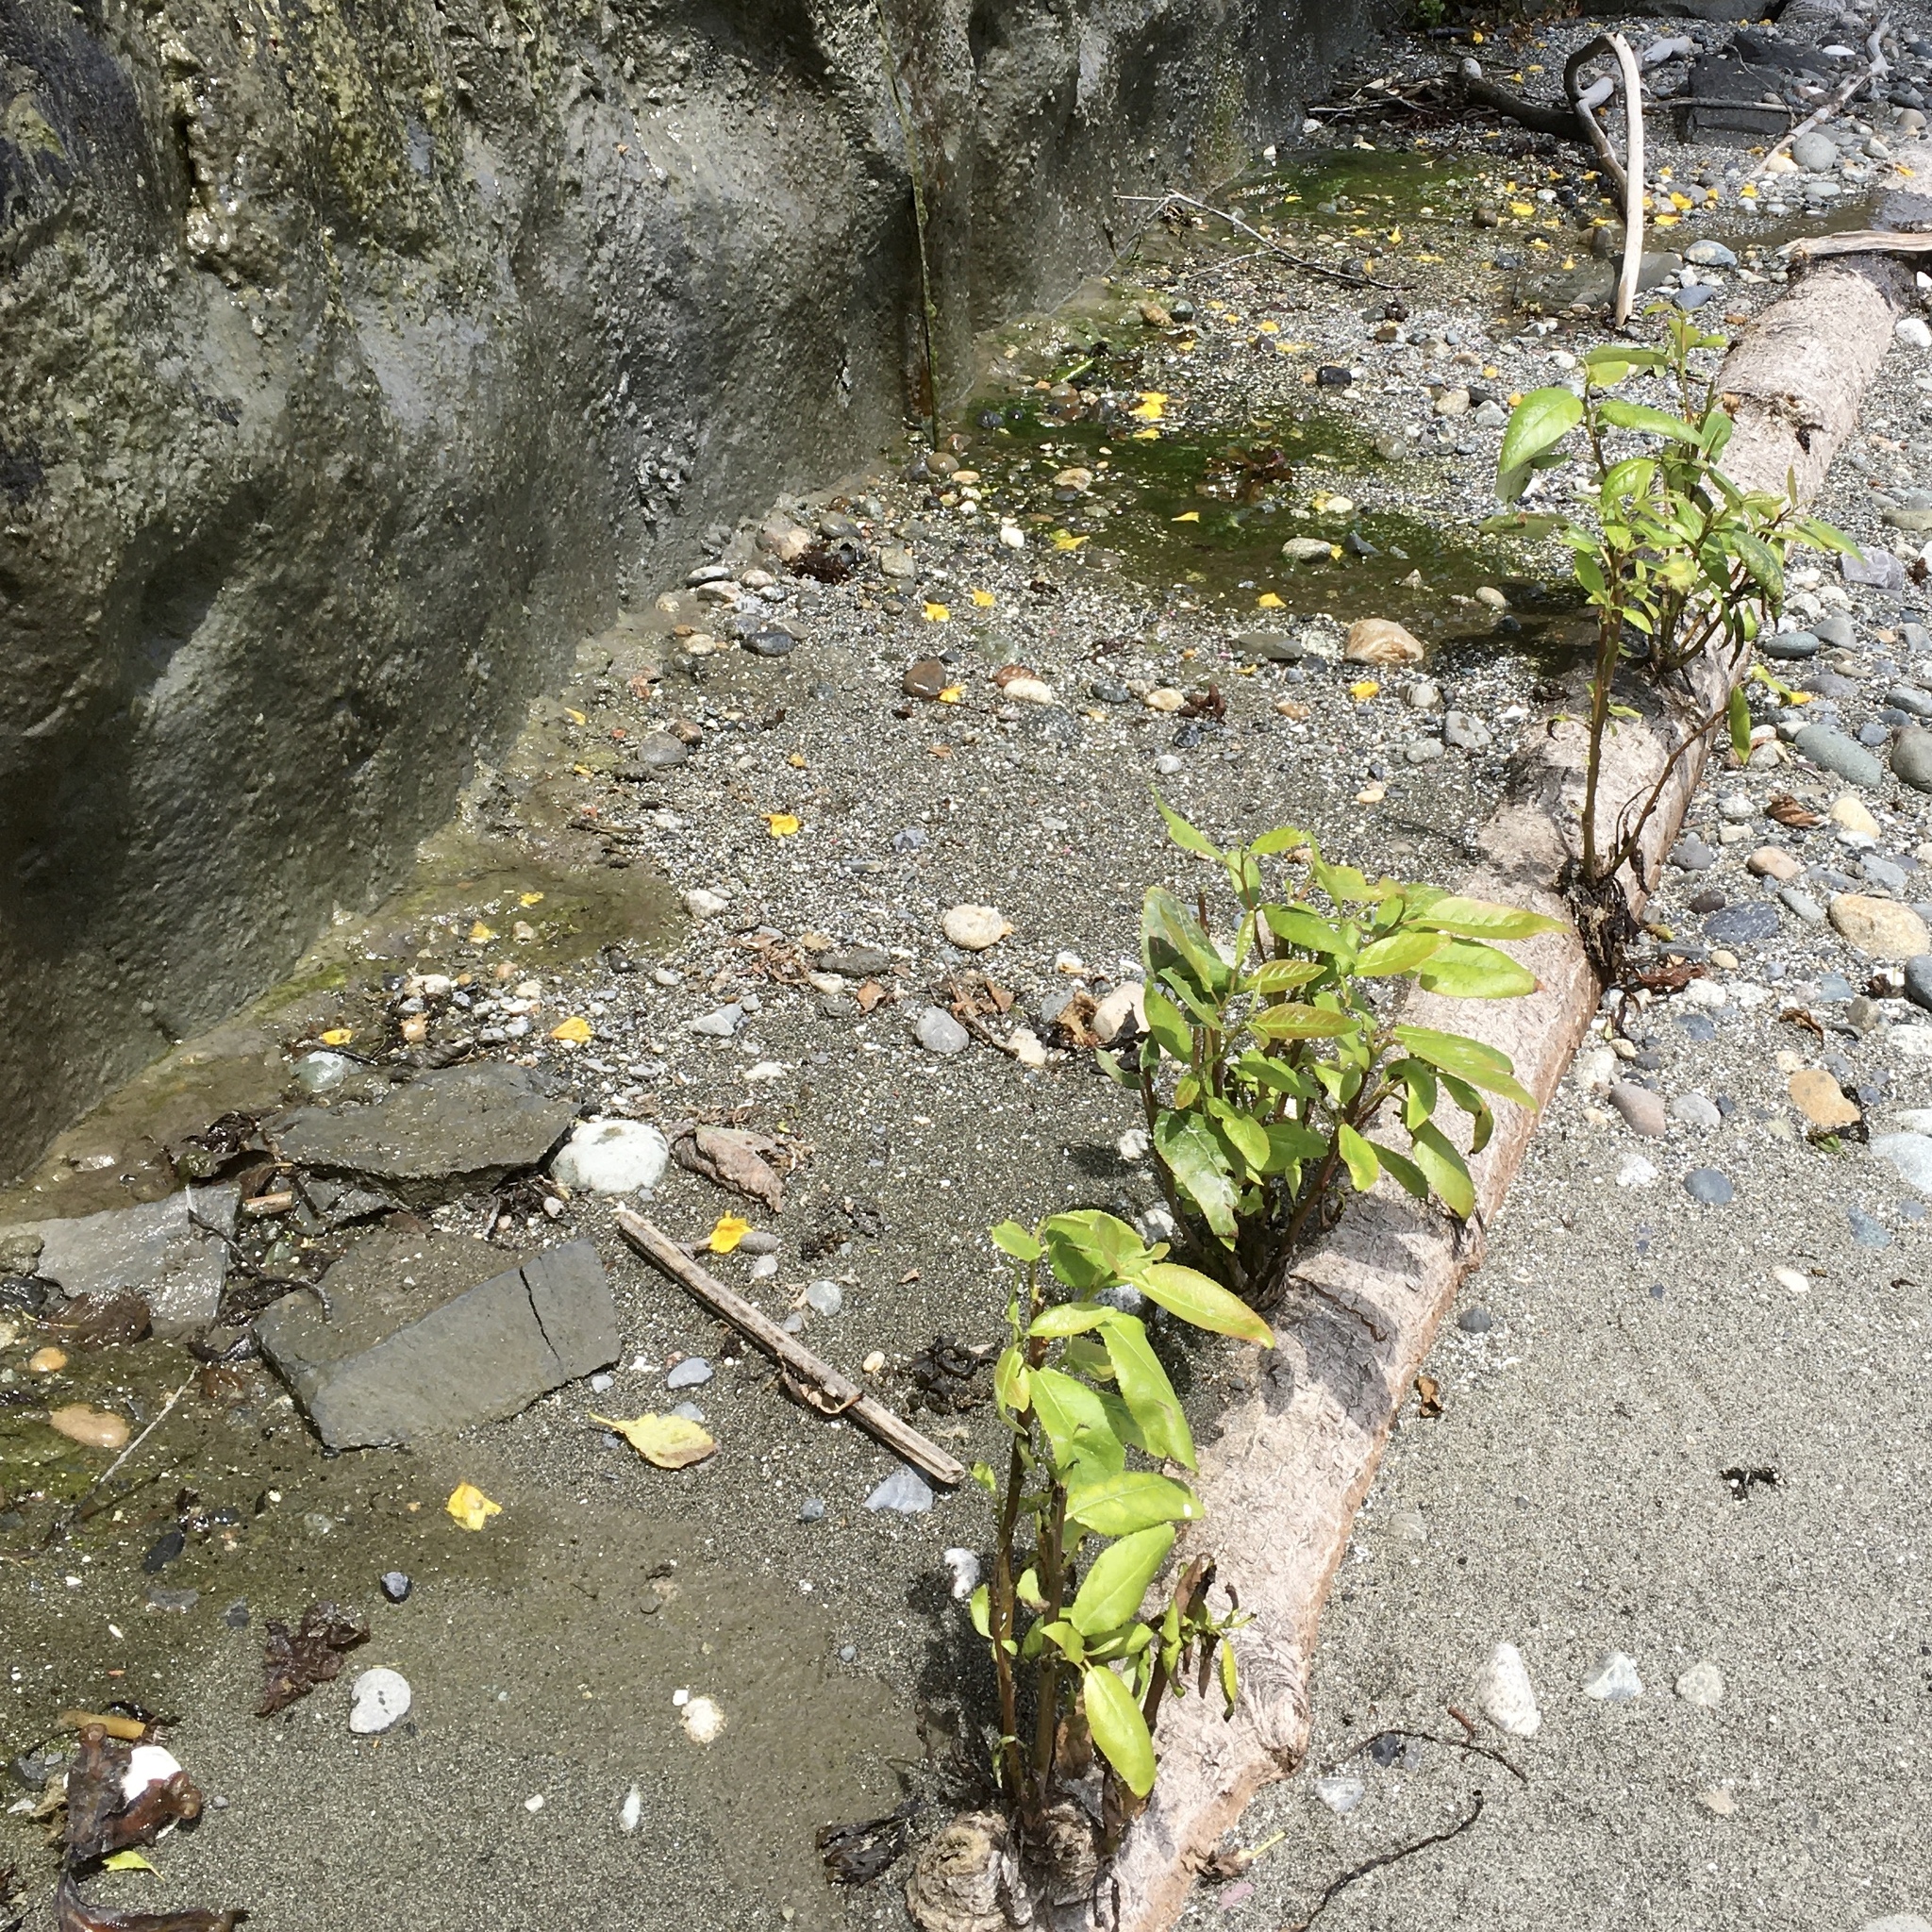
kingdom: Plantae
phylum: Tracheophyta
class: Magnoliopsida
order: Malpighiales
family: Salicaceae
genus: Populus
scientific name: Populus trichocarpa
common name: Black cottonwood
